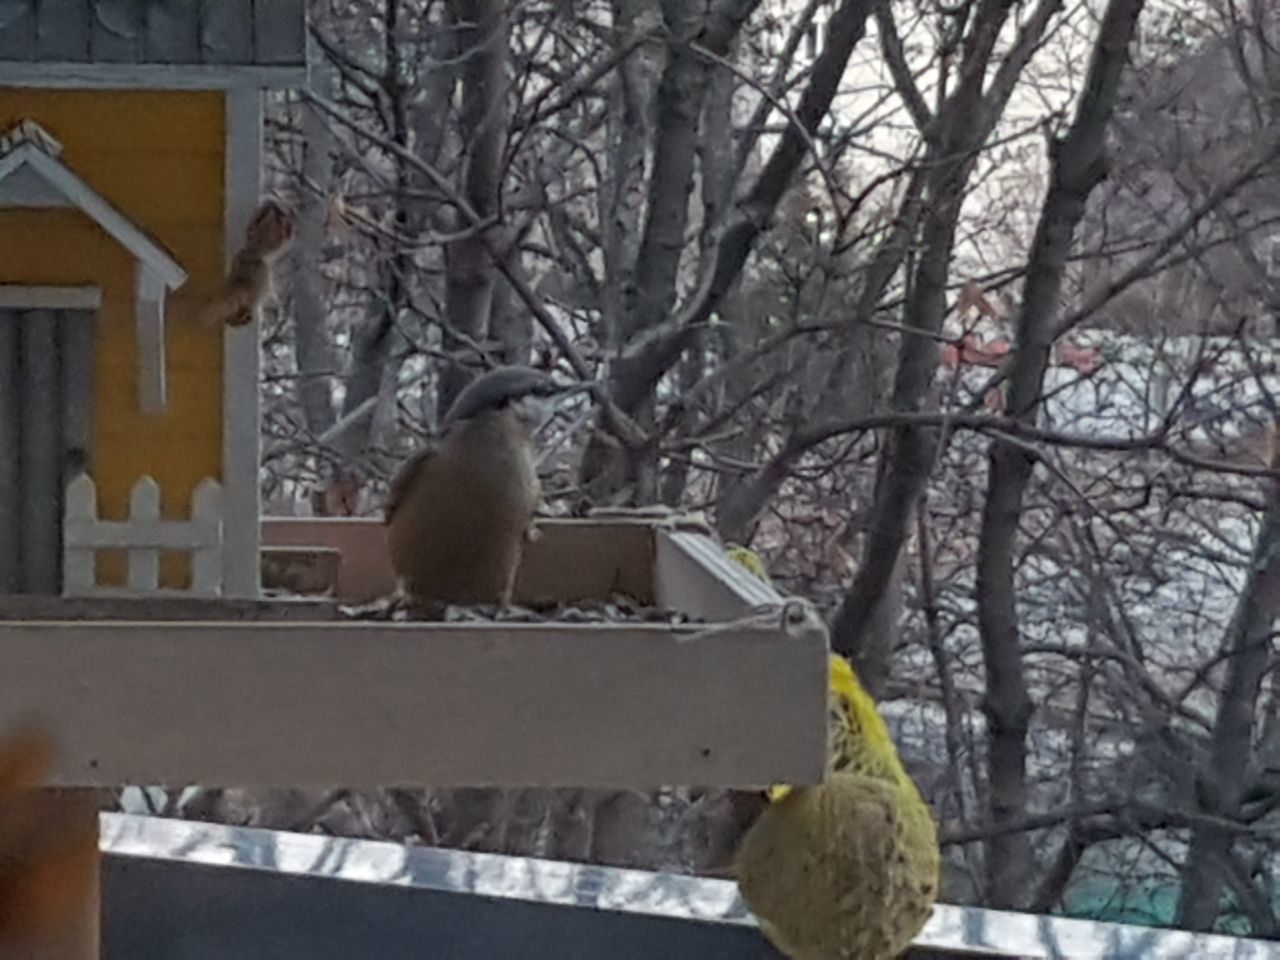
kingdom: Animalia
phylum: Chordata
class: Aves
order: Passeriformes
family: Sittidae
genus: Sitta
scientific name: Sitta europaea
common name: Eurasian nuthatch
